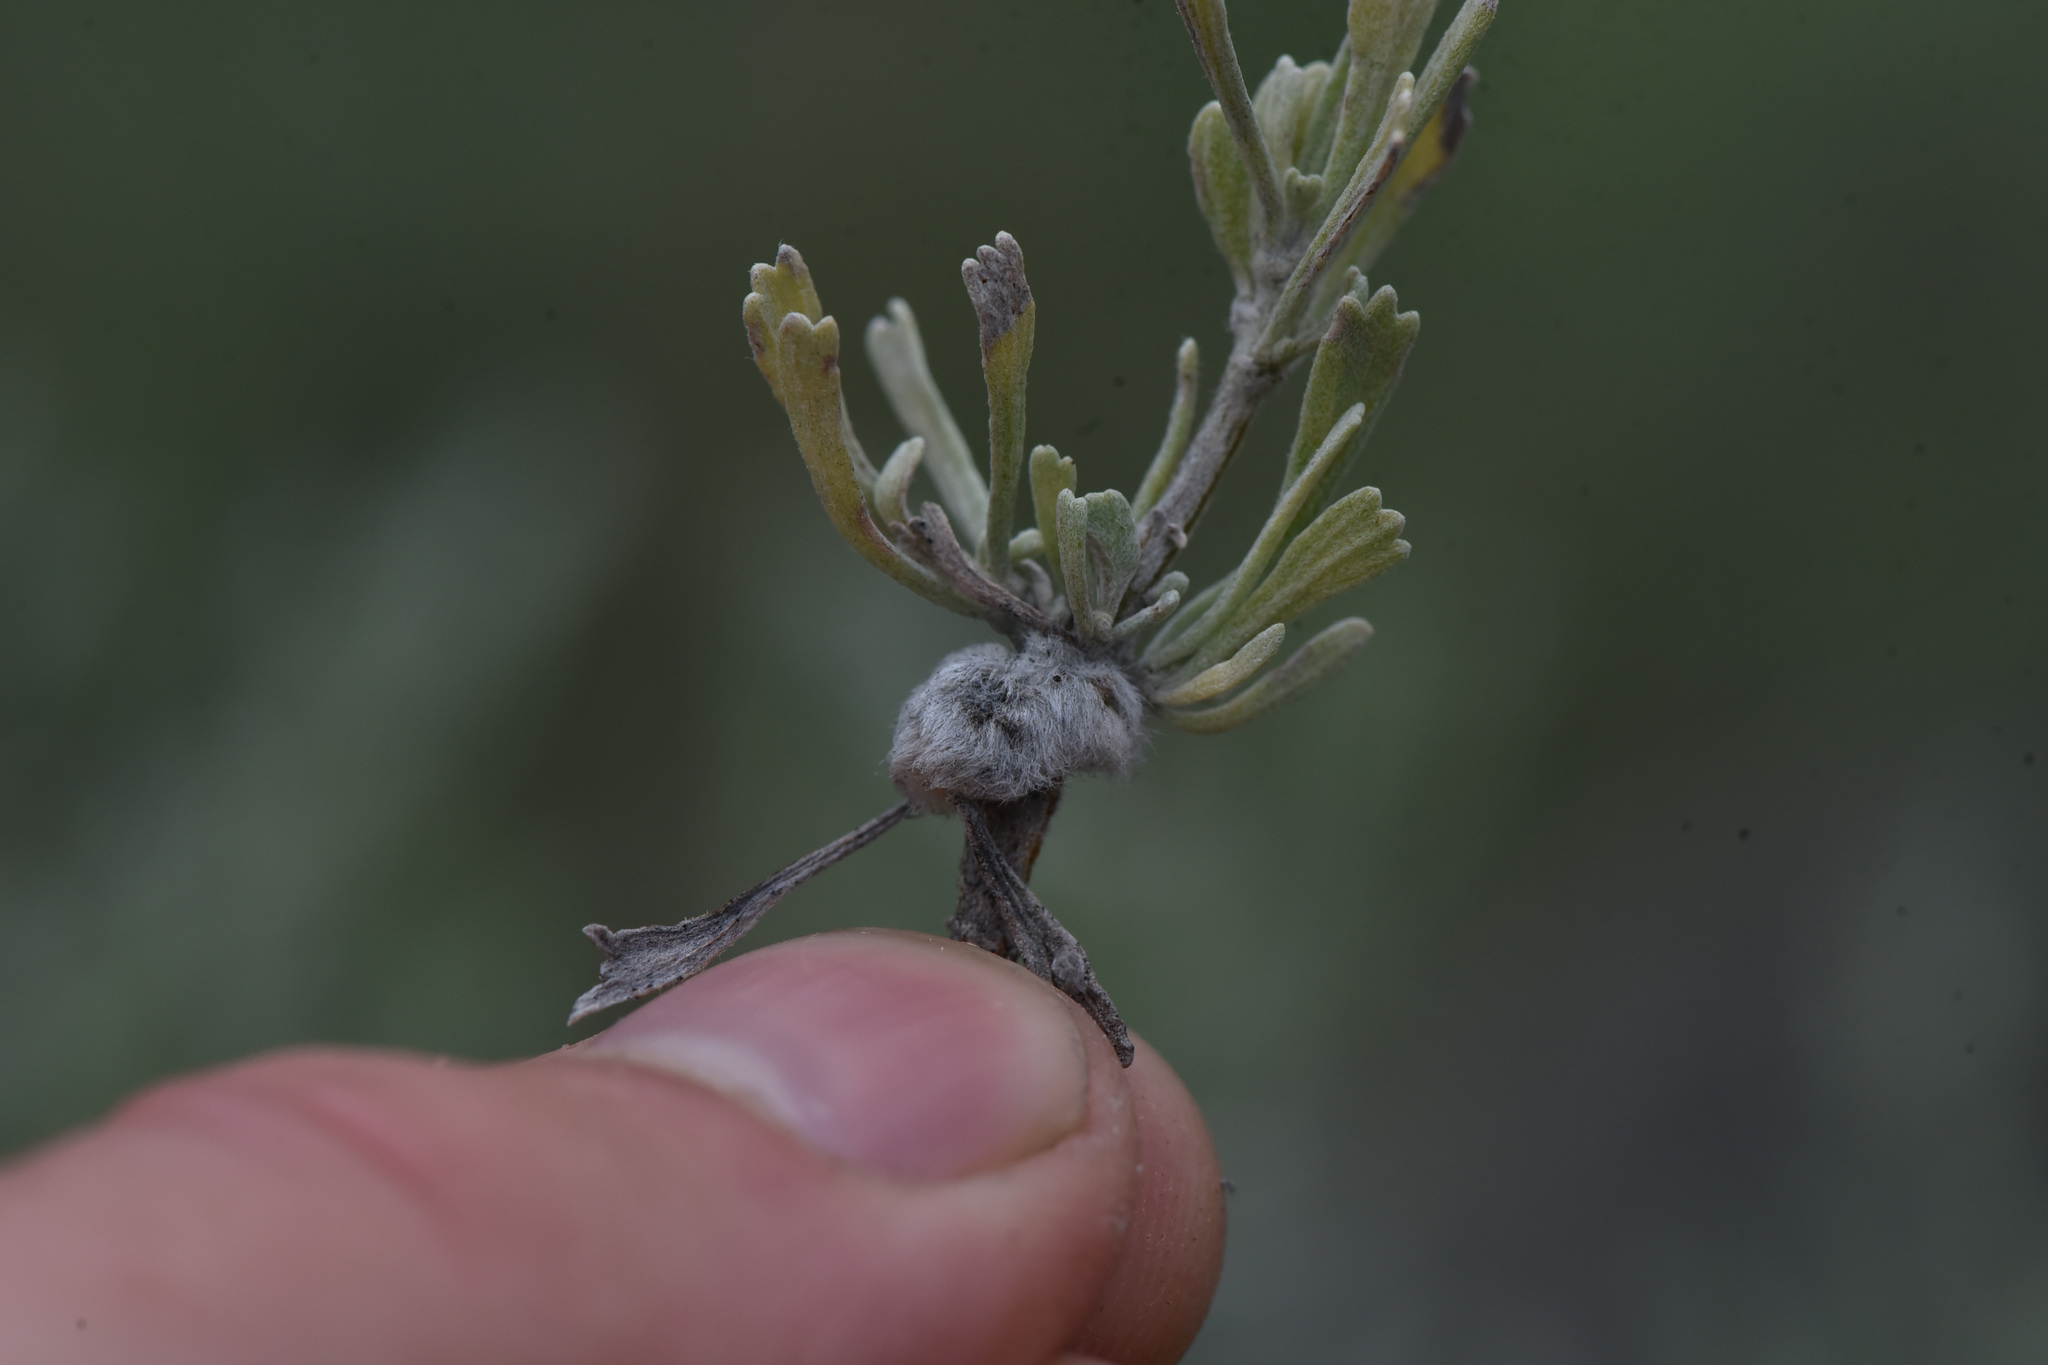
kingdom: Plantae
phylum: Tracheophyta
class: Magnoliopsida
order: Asterales
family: Asteraceae
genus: Artemisia
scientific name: Artemisia tridentata
